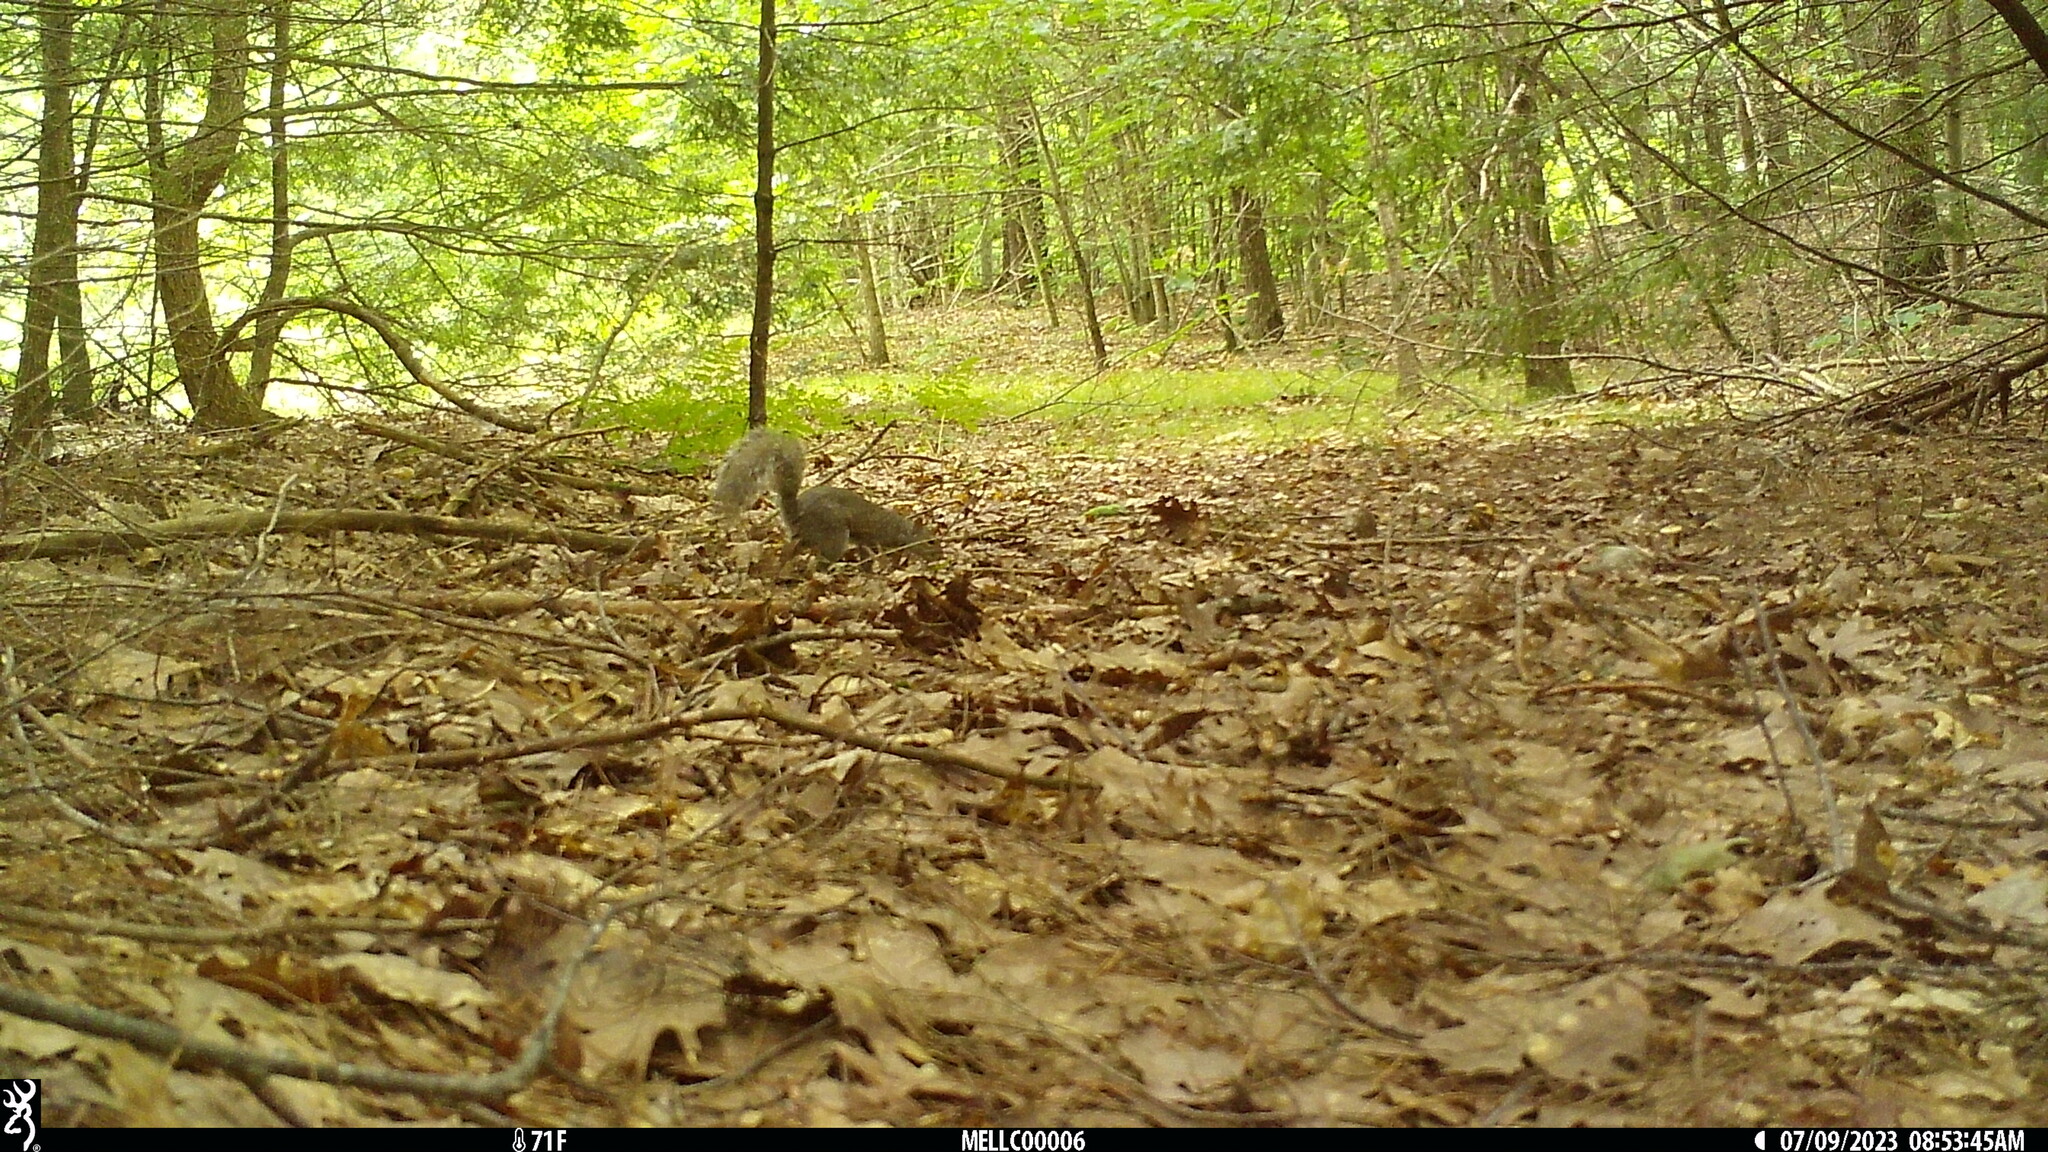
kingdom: Animalia
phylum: Chordata
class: Mammalia
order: Rodentia
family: Sciuridae
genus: Sciurus
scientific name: Sciurus carolinensis
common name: Eastern gray squirrel
